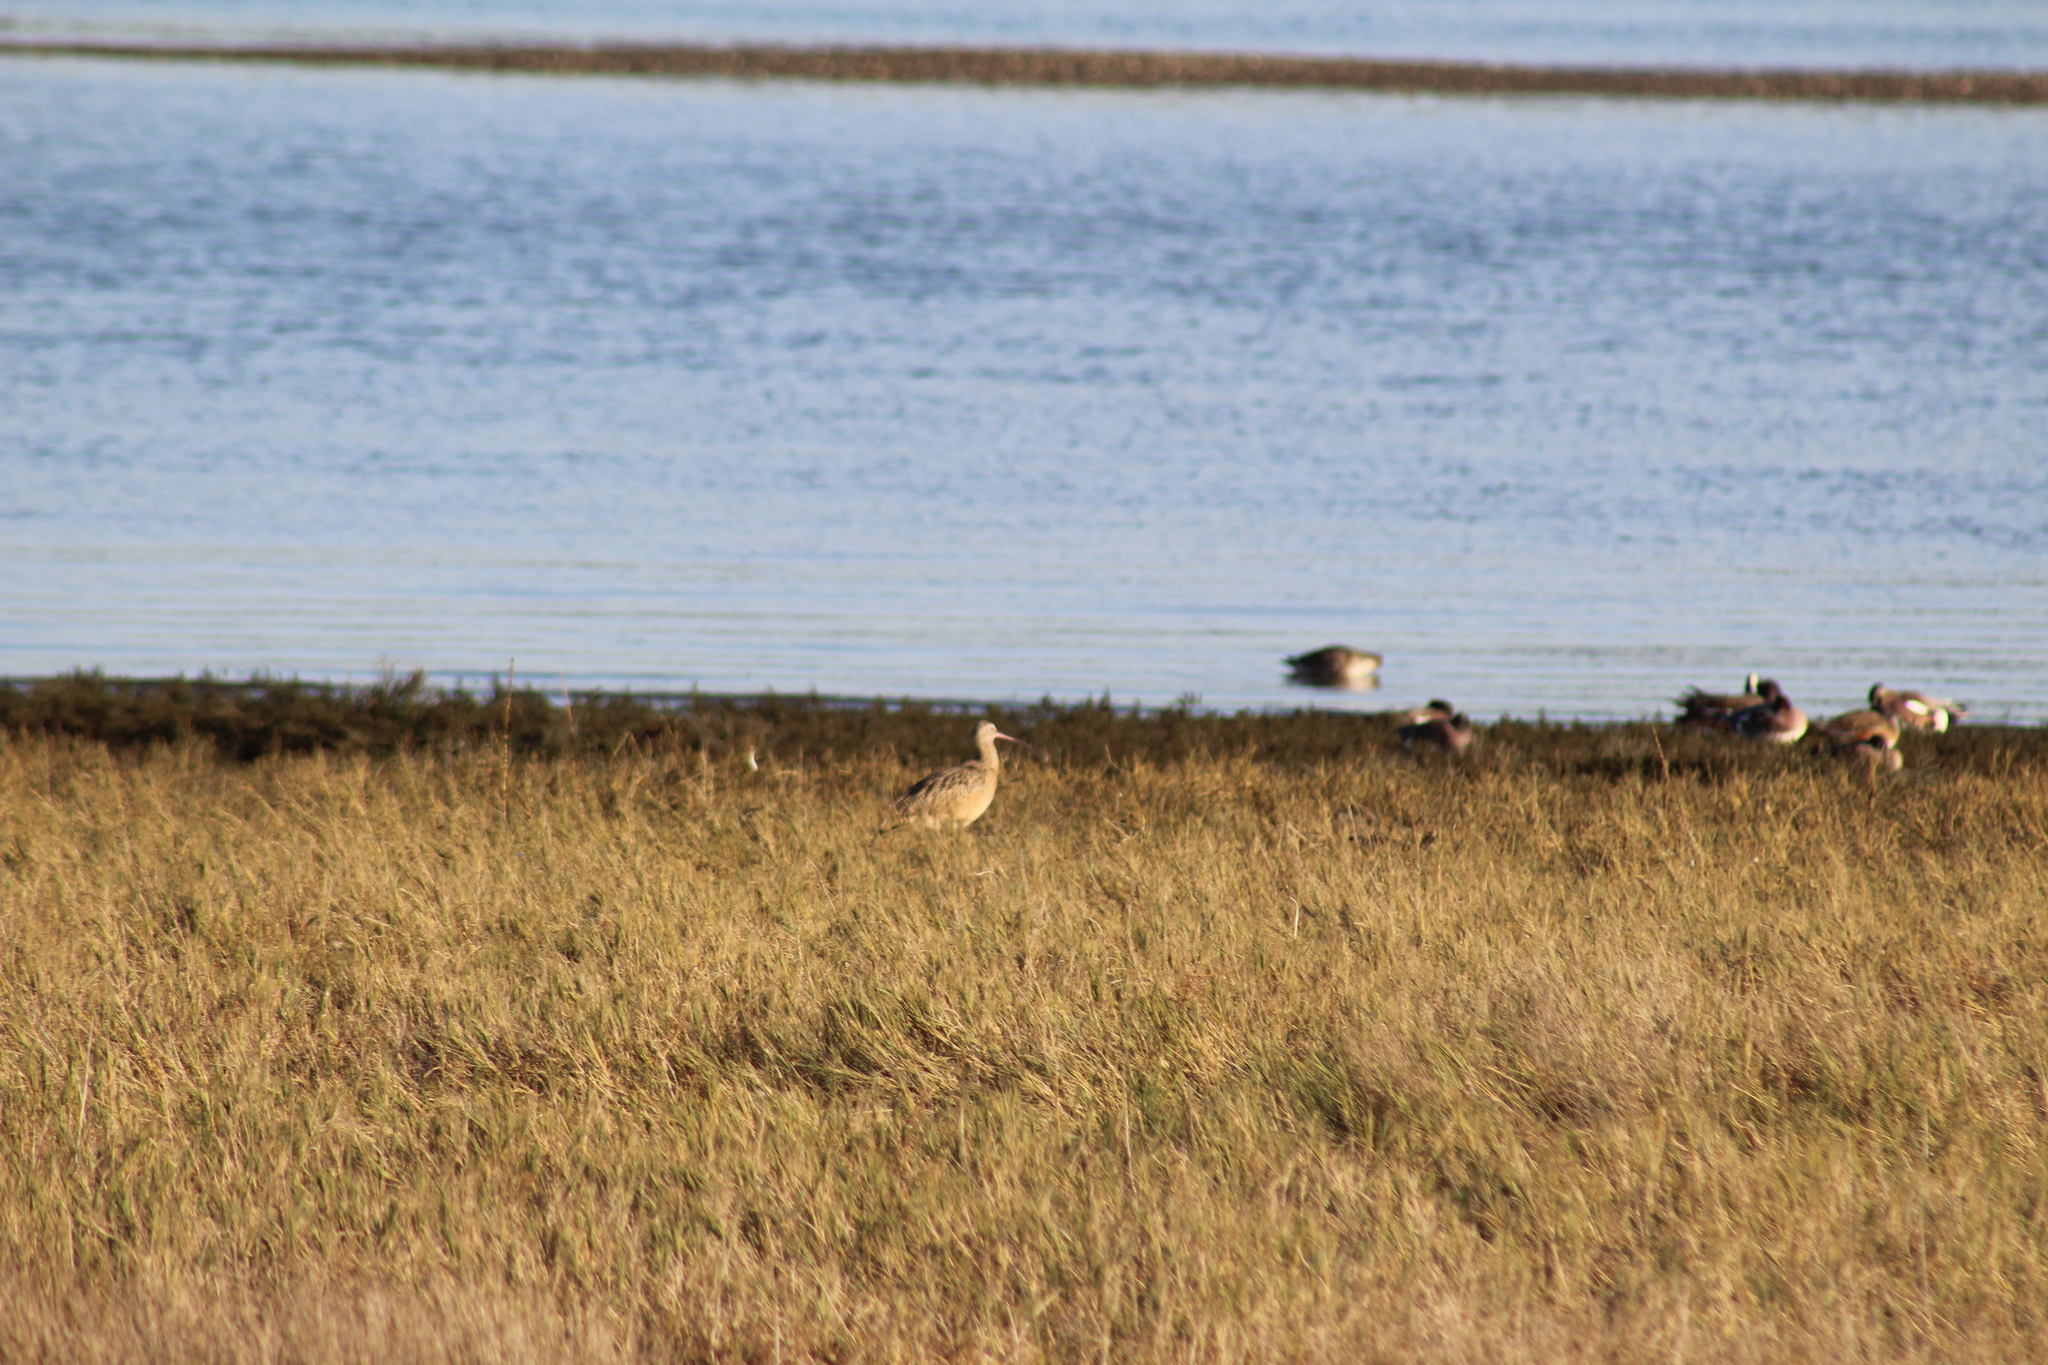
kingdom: Animalia
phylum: Chordata
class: Aves
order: Charadriiformes
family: Scolopacidae
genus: Numenius
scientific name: Numenius americanus
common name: Long-billed curlew
